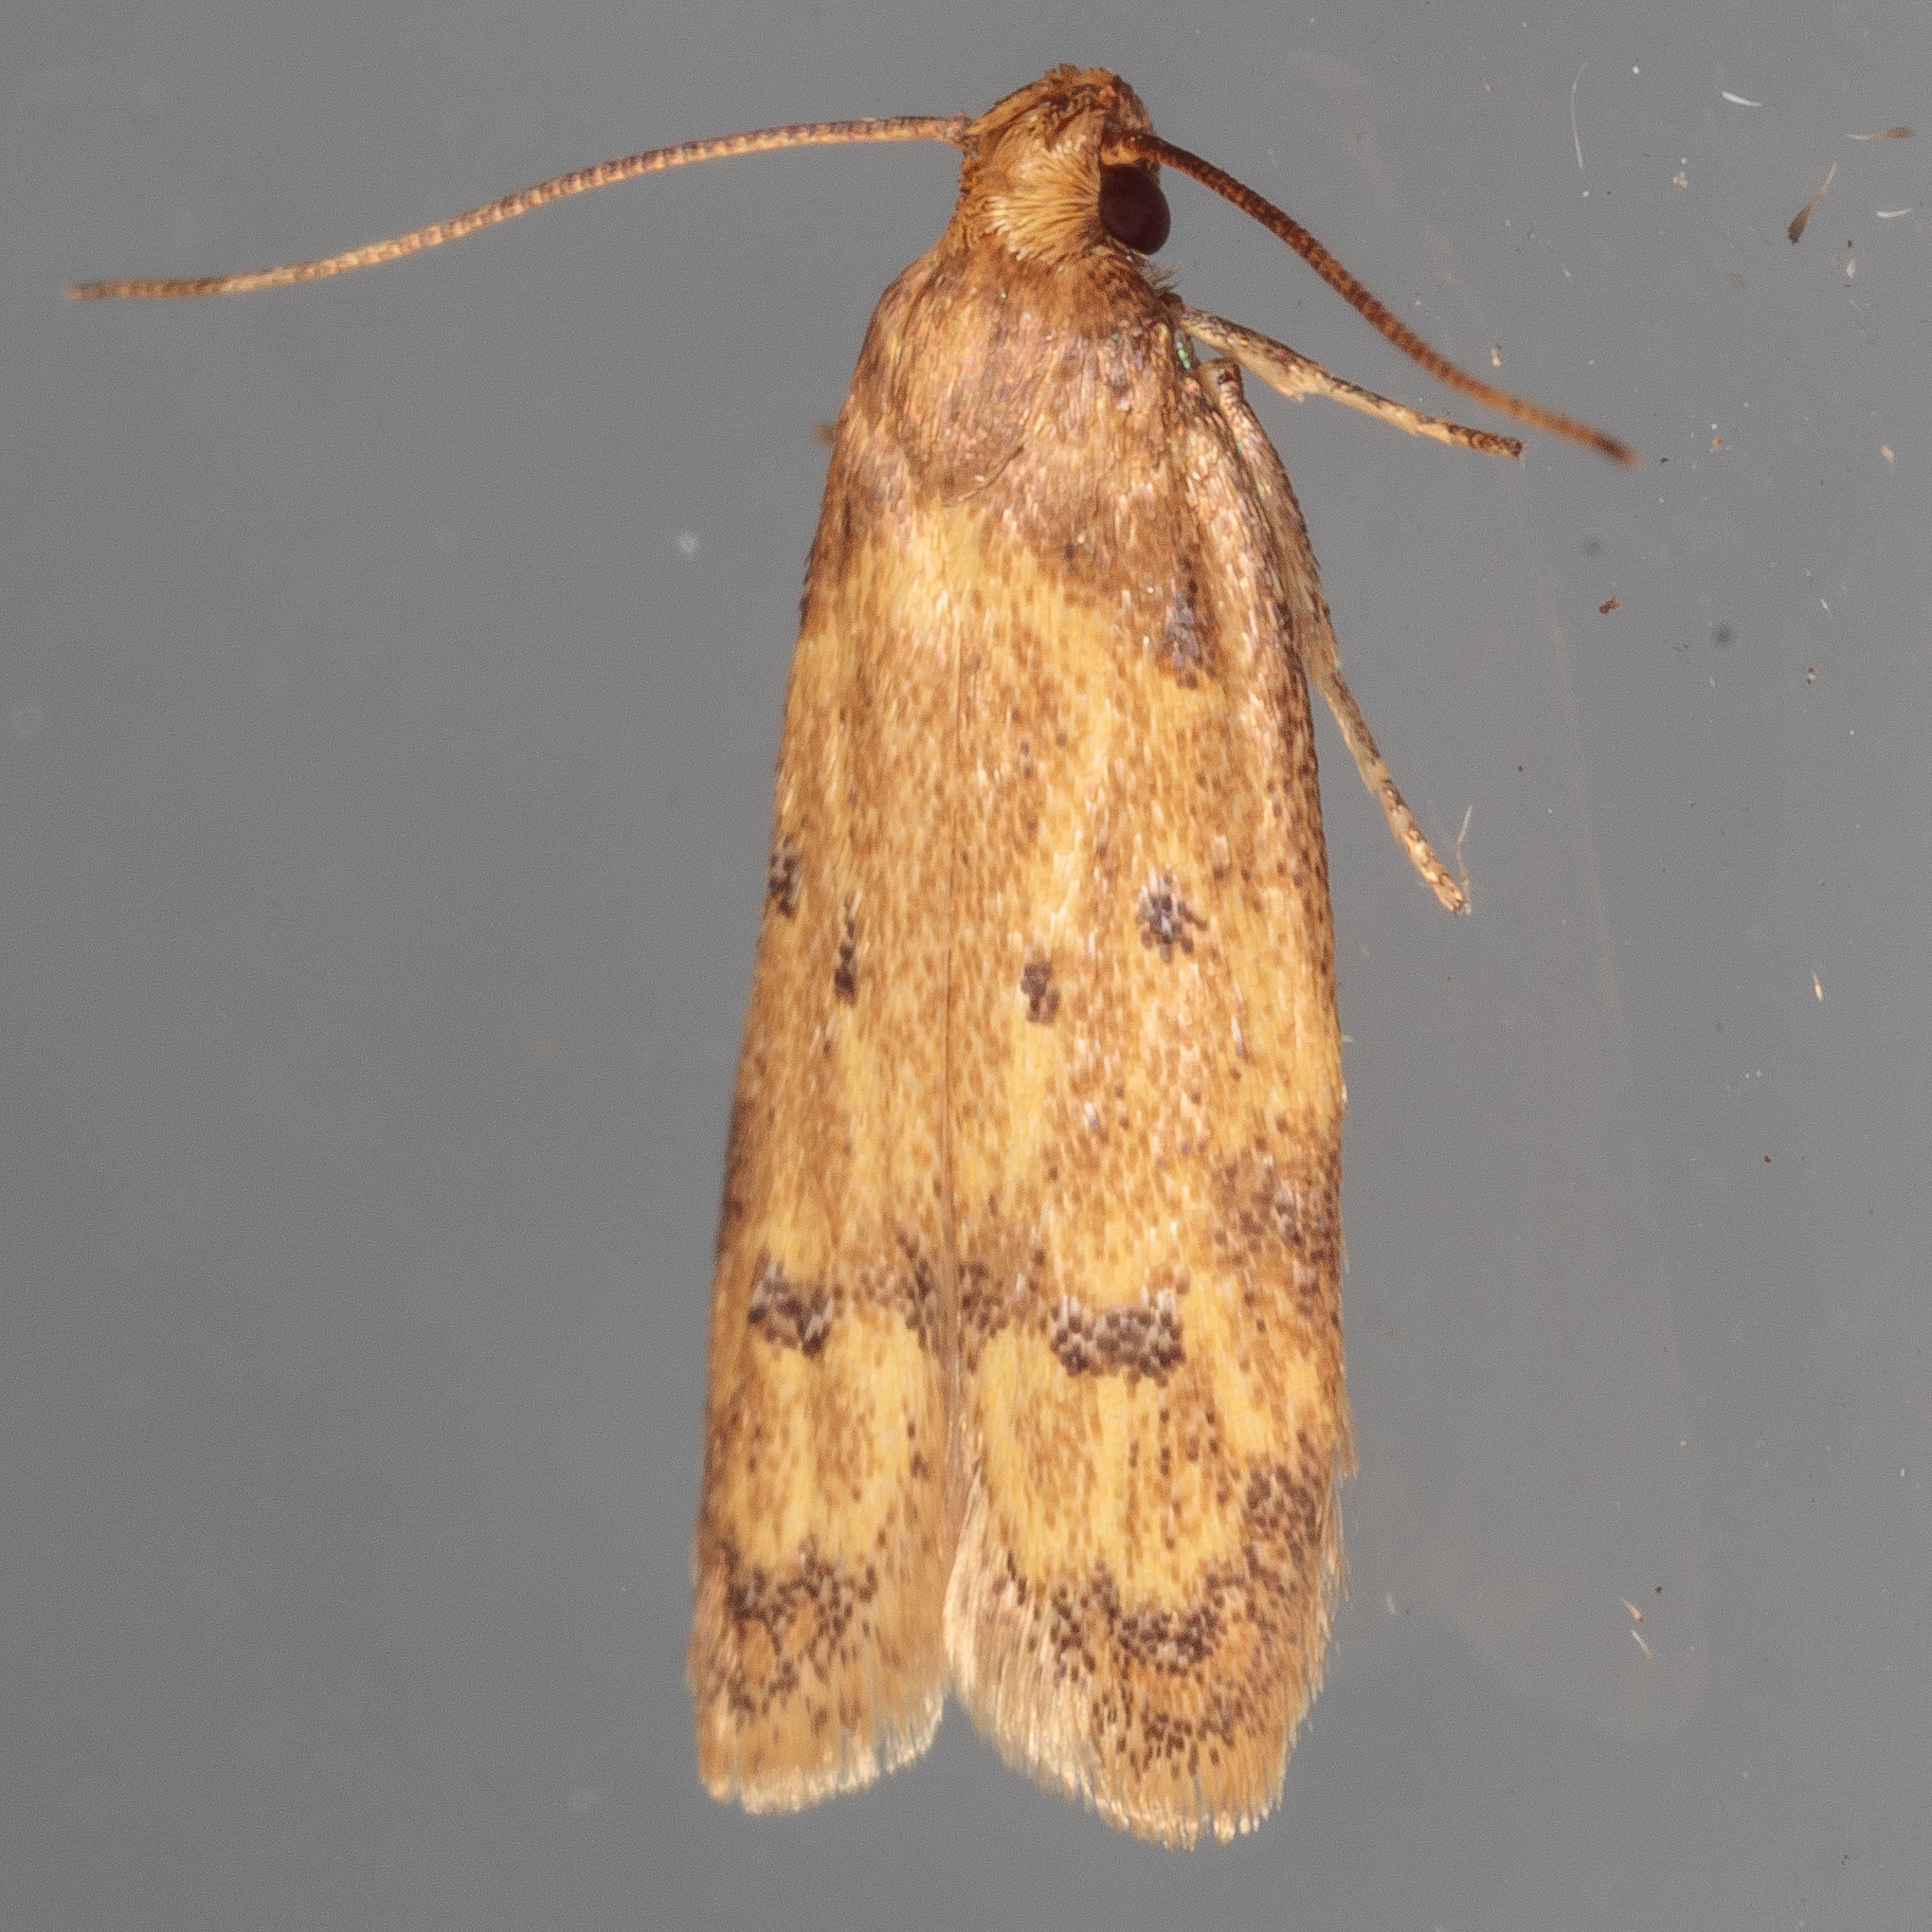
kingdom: Animalia
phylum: Arthropoda
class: Insecta
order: Lepidoptera
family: Autostichidae
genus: Gerdana
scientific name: Gerdana caritella
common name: Gerdana moth
